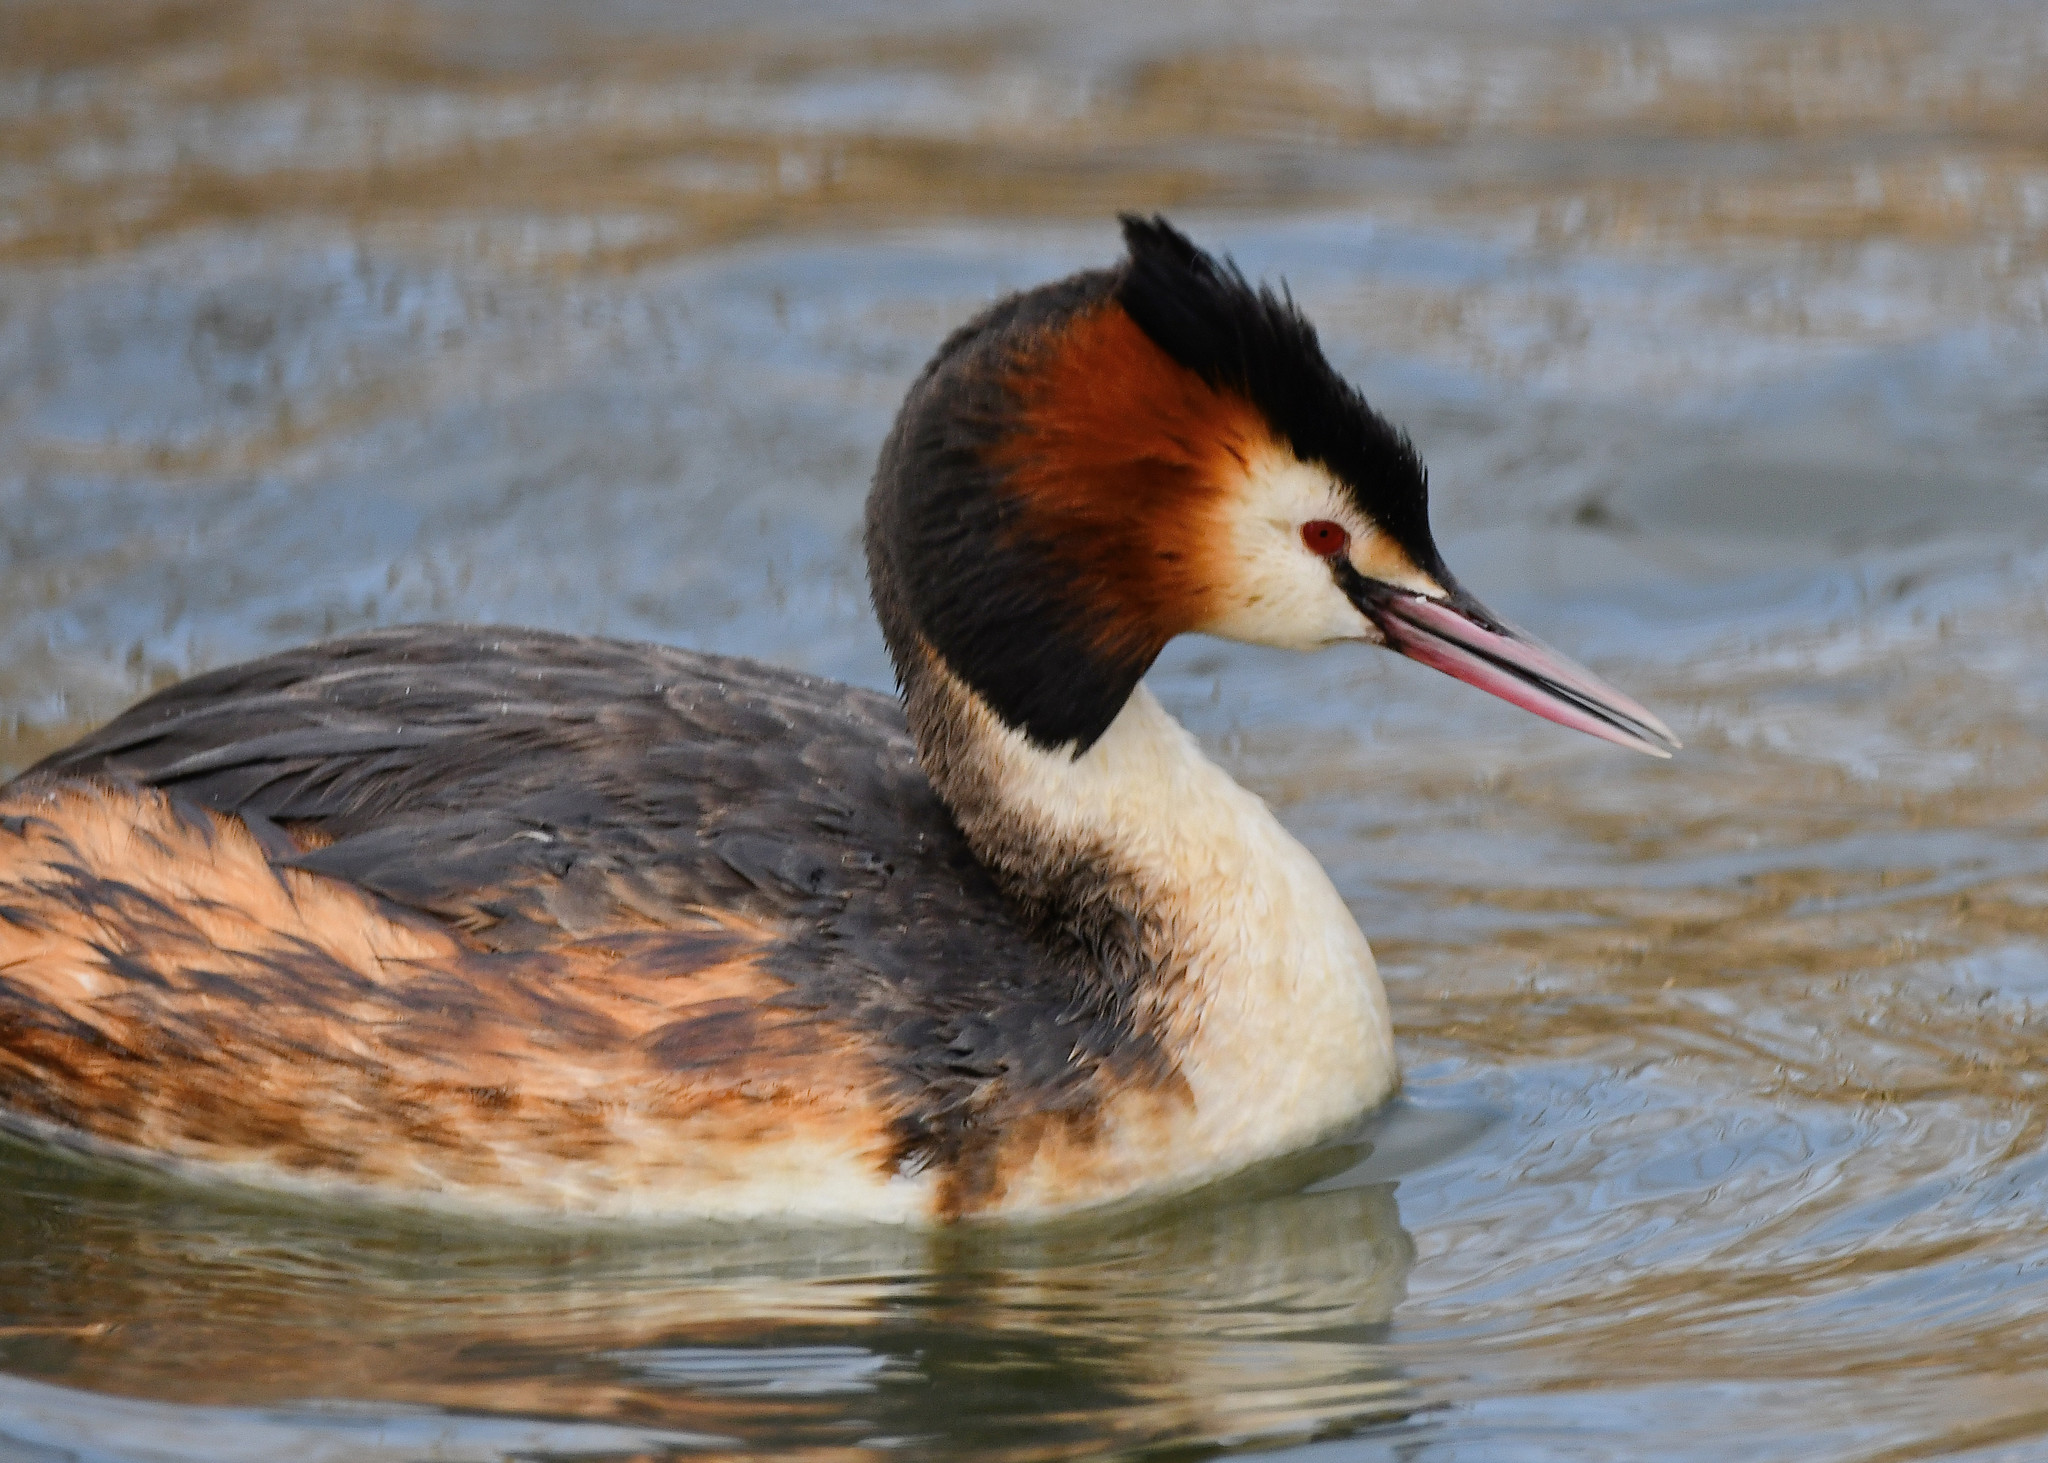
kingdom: Animalia
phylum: Chordata
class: Aves
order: Podicipediformes
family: Podicipedidae
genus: Podiceps
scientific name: Podiceps cristatus
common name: Great crested grebe
